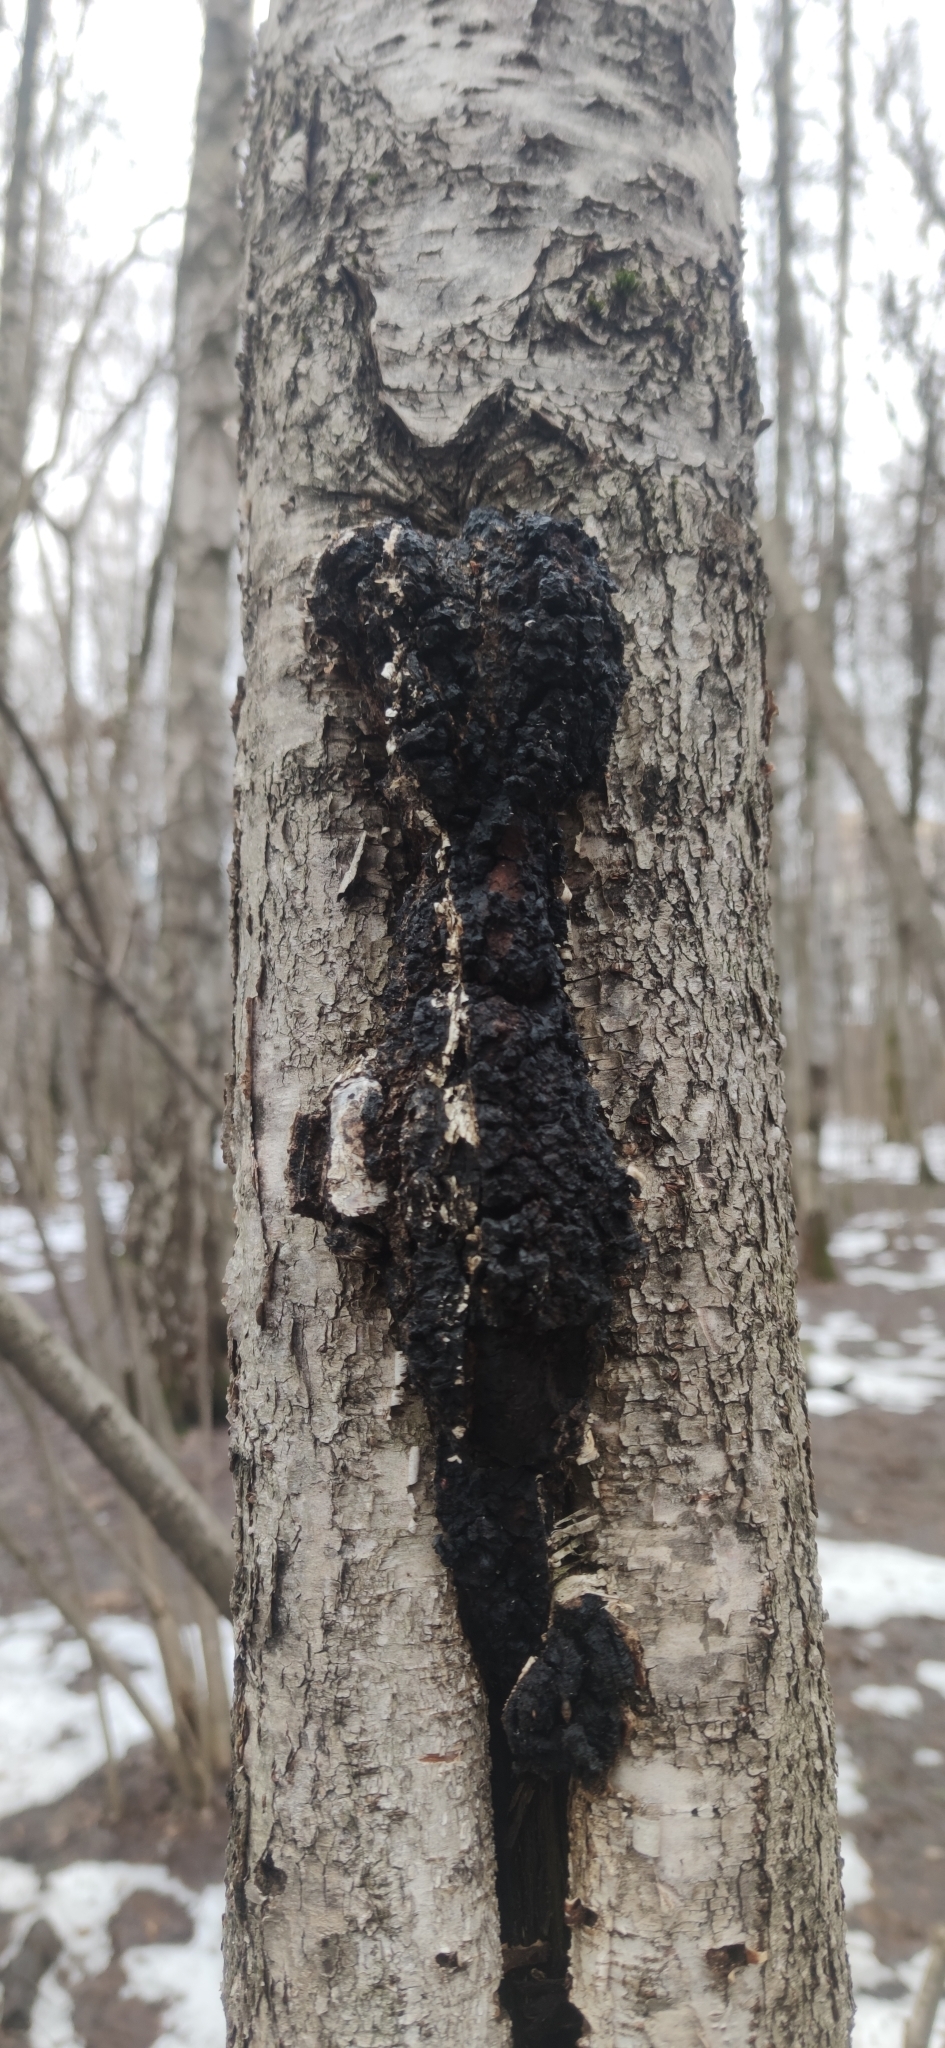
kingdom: Fungi
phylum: Basidiomycota
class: Agaricomycetes
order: Hymenochaetales
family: Hymenochaetaceae
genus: Inonotus
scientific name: Inonotus obliquus
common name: Chaga
